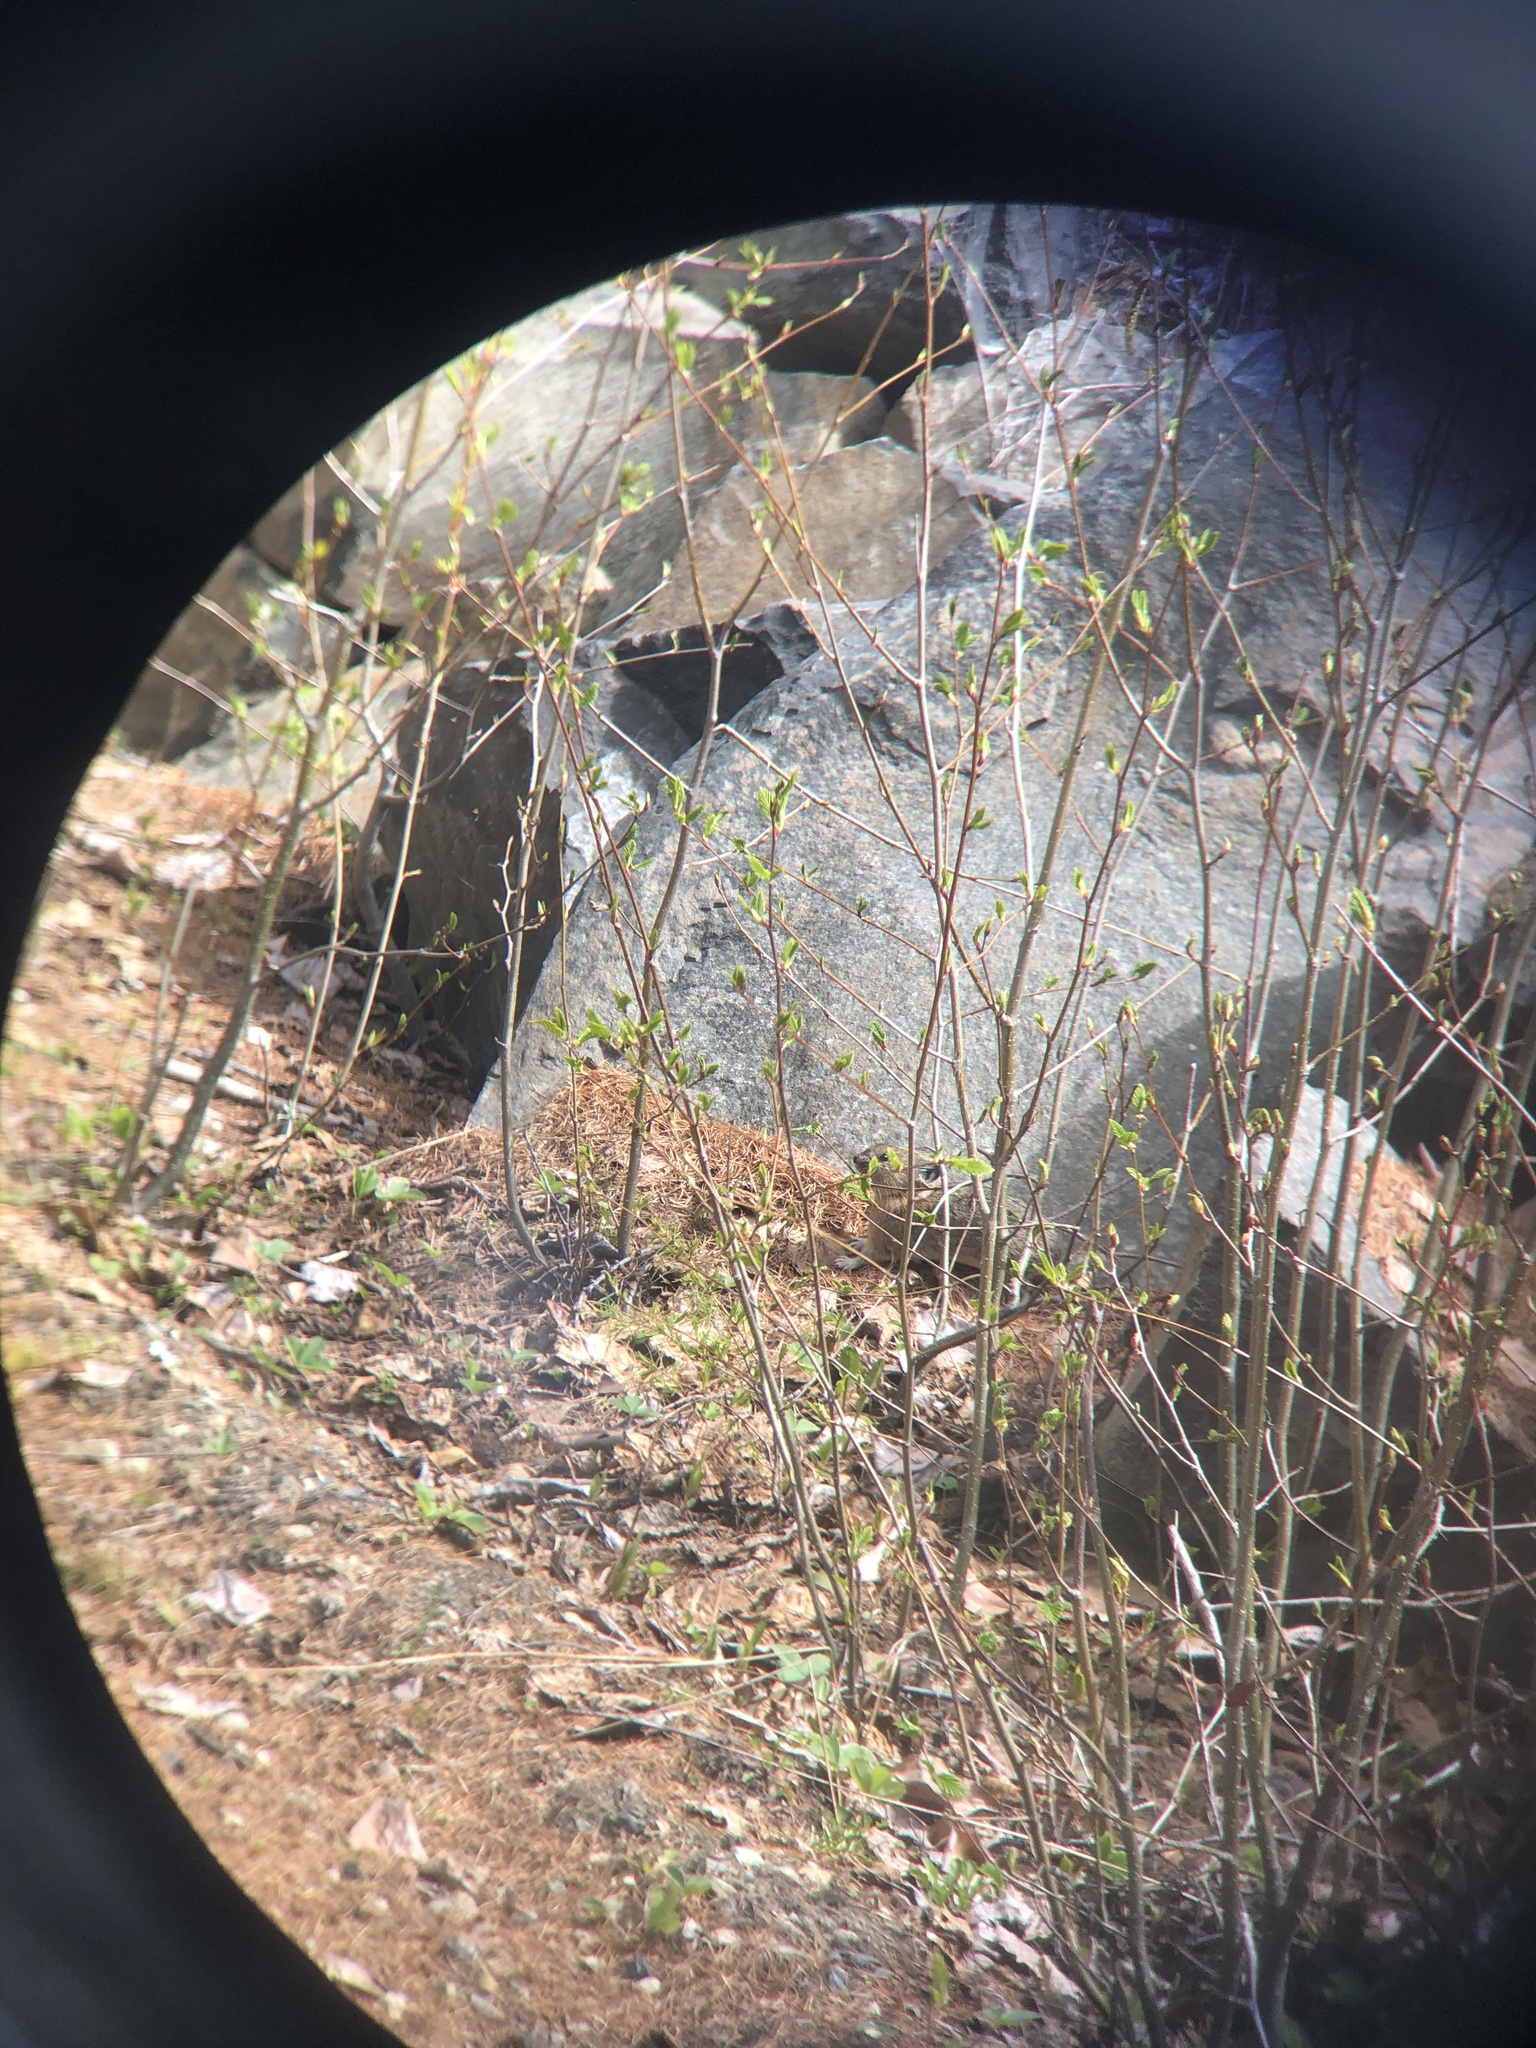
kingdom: Animalia
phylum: Chordata
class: Mammalia
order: Lagomorpha
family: Ochotonidae
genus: Ochotona
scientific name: Ochotona princeps
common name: American pika
